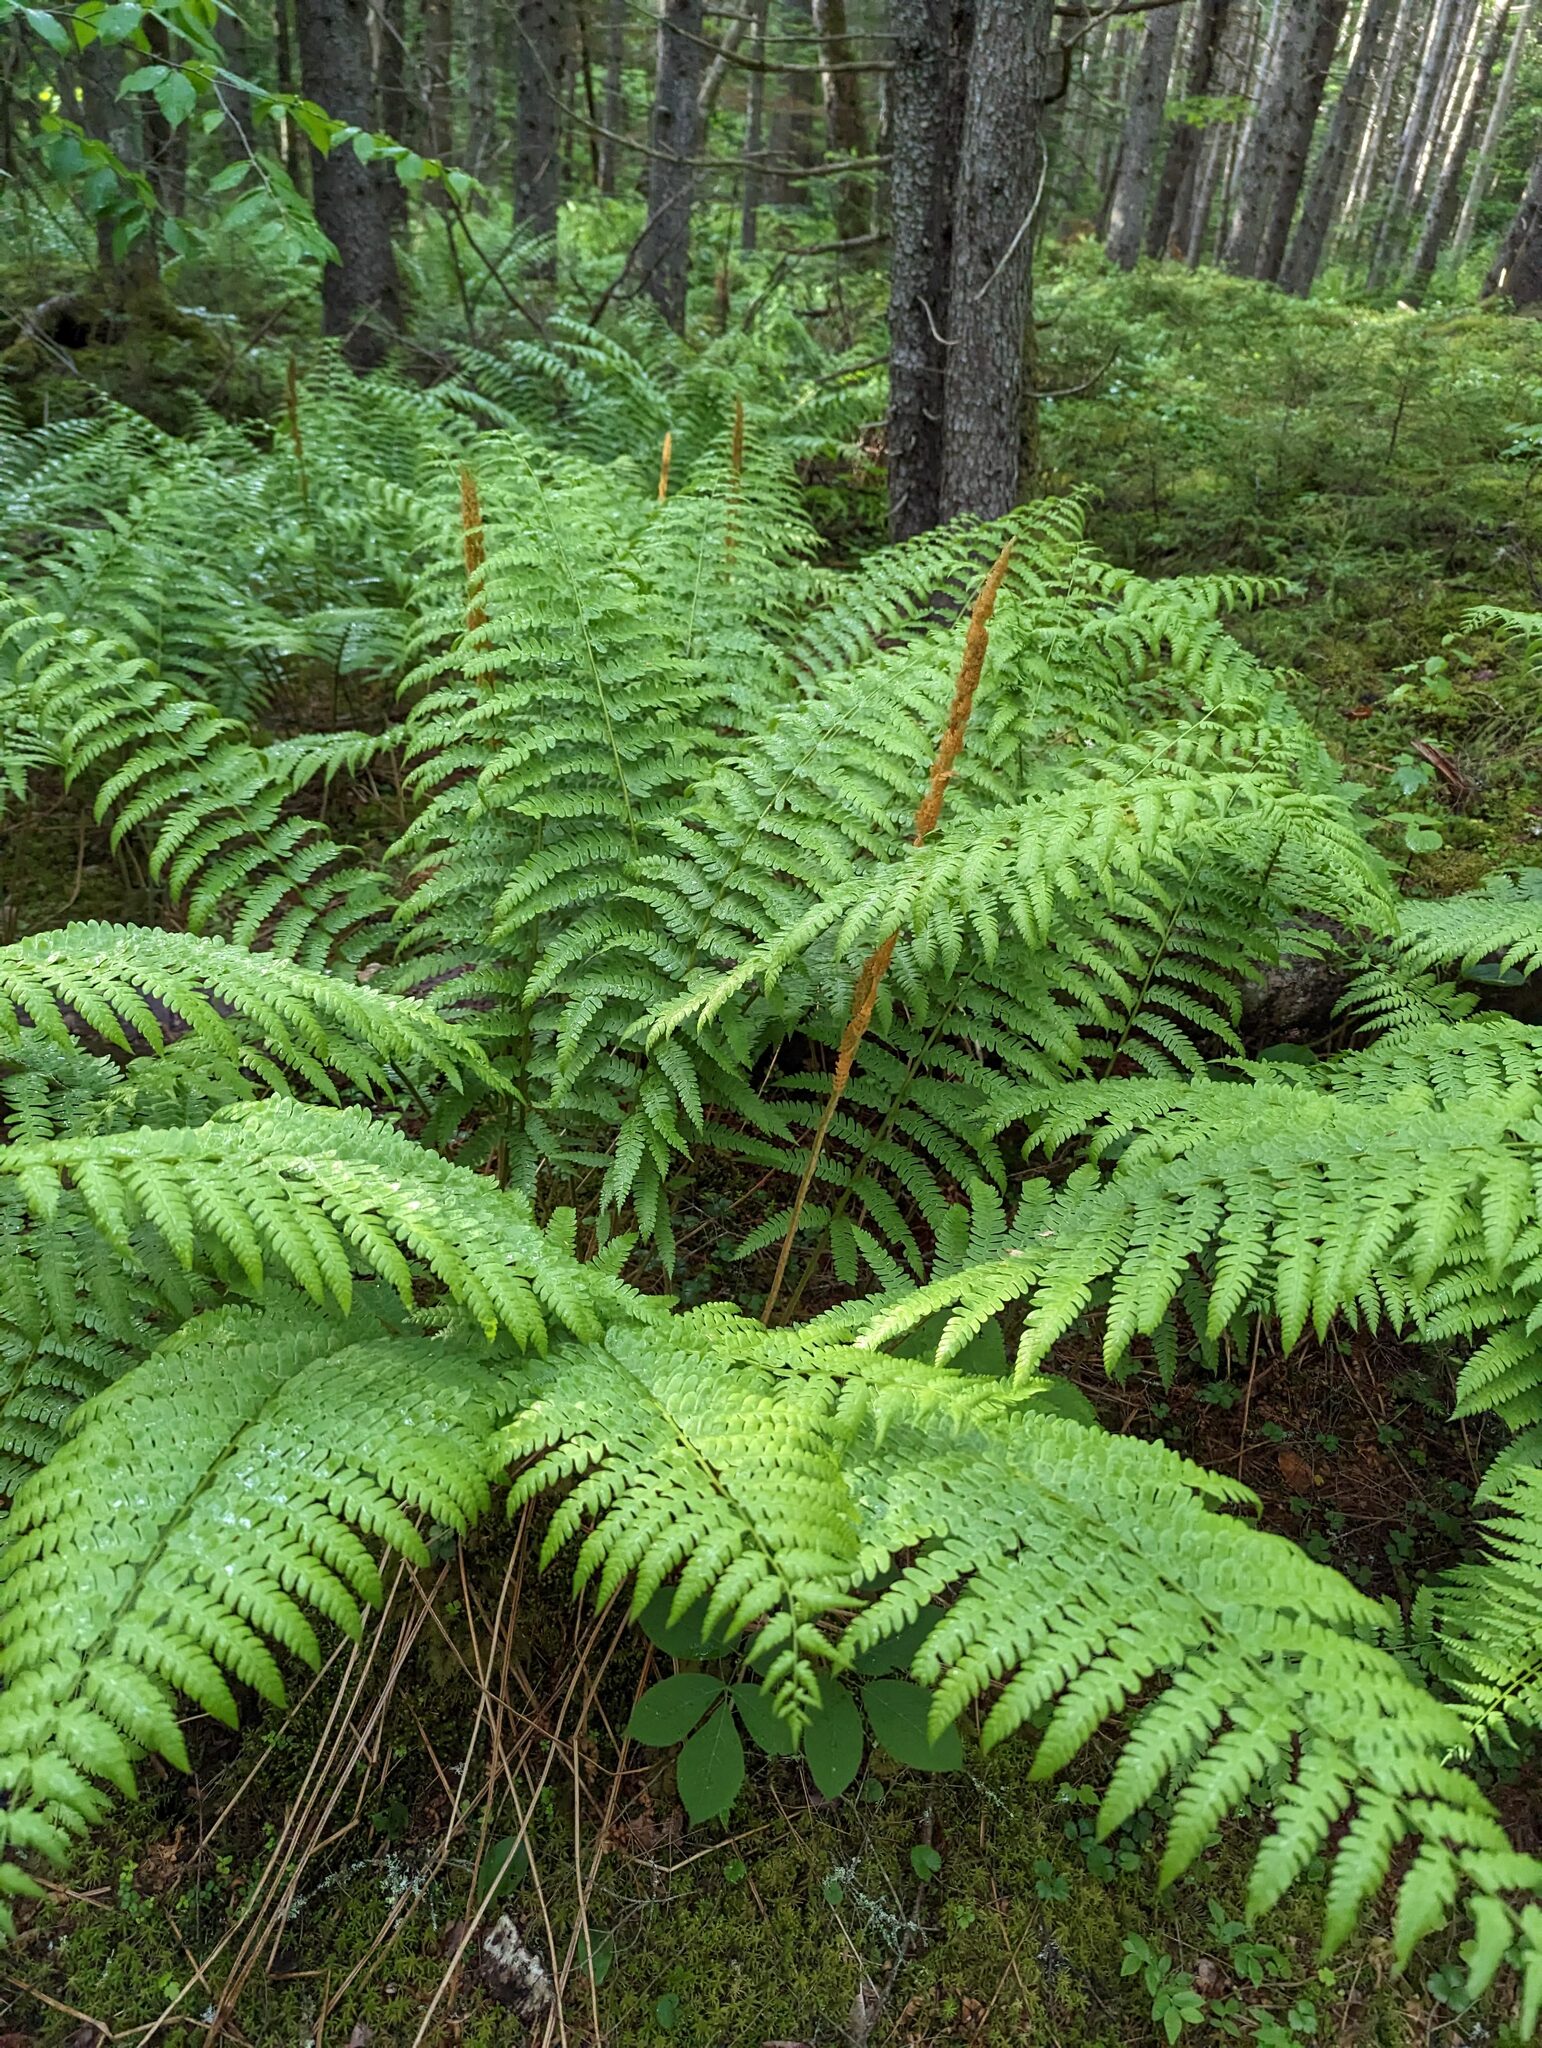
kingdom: Plantae
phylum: Tracheophyta
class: Polypodiopsida
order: Osmundales
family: Osmundaceae
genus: Osmundastrum
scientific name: Osmundastrum cinnamomeum
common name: Cinnamon fern
